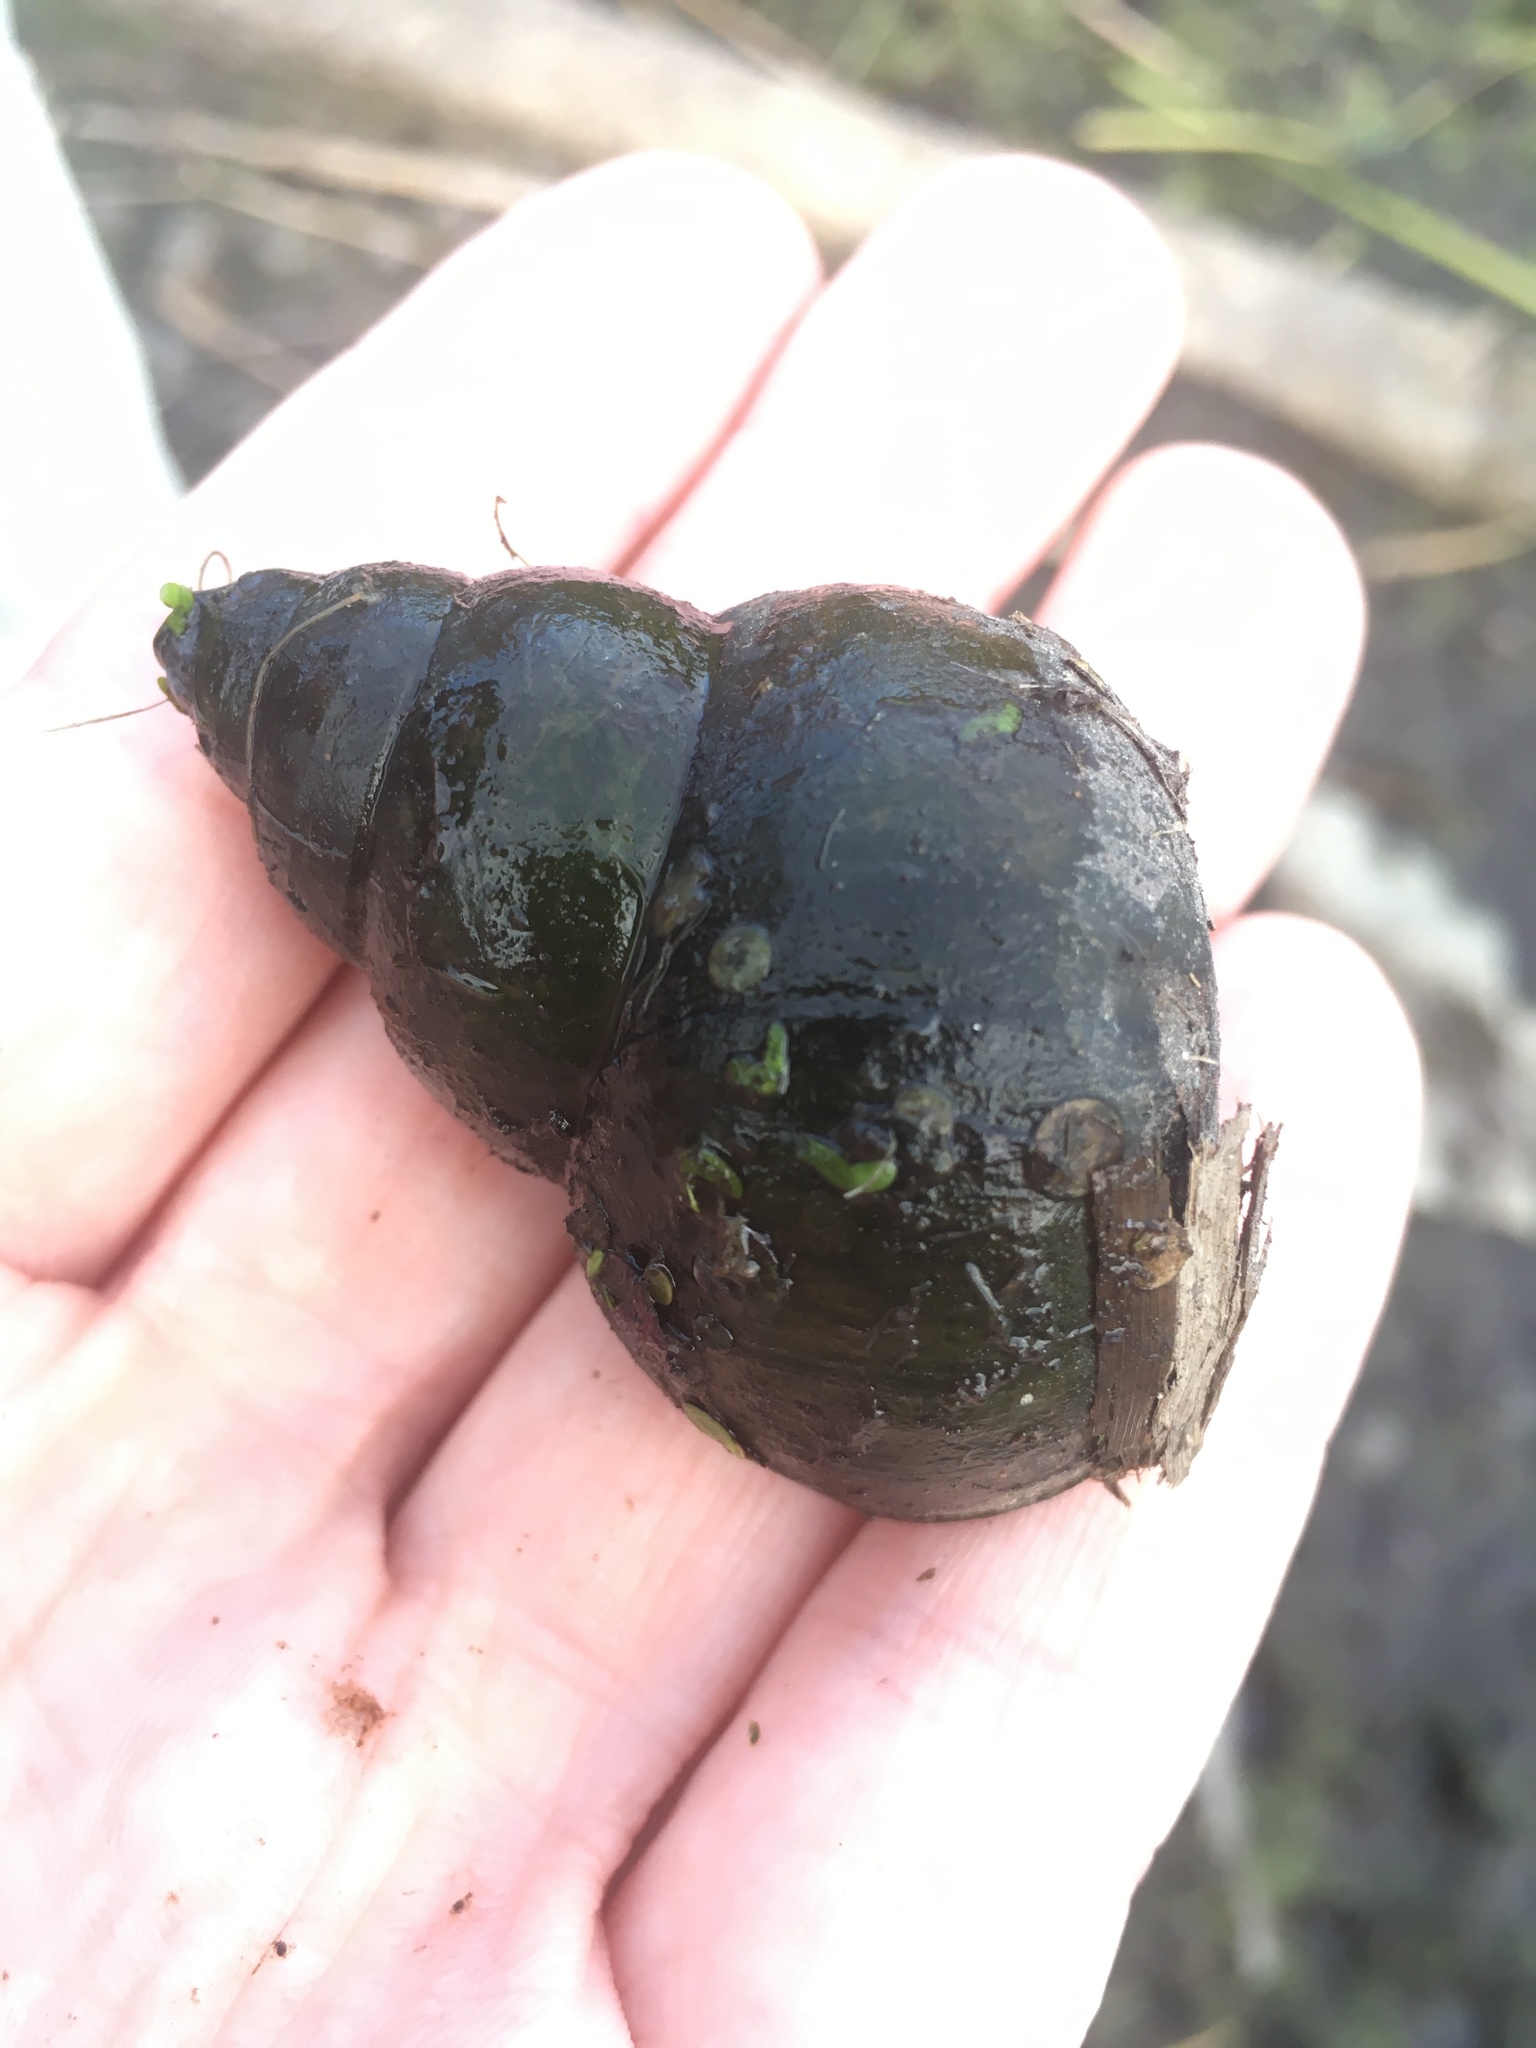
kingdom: Animalia
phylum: Mollusca
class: Gastropoda
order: Architaenioglossa
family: Viviparidae
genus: Cipangopaludina
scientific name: Cipangopaludina chinensis
